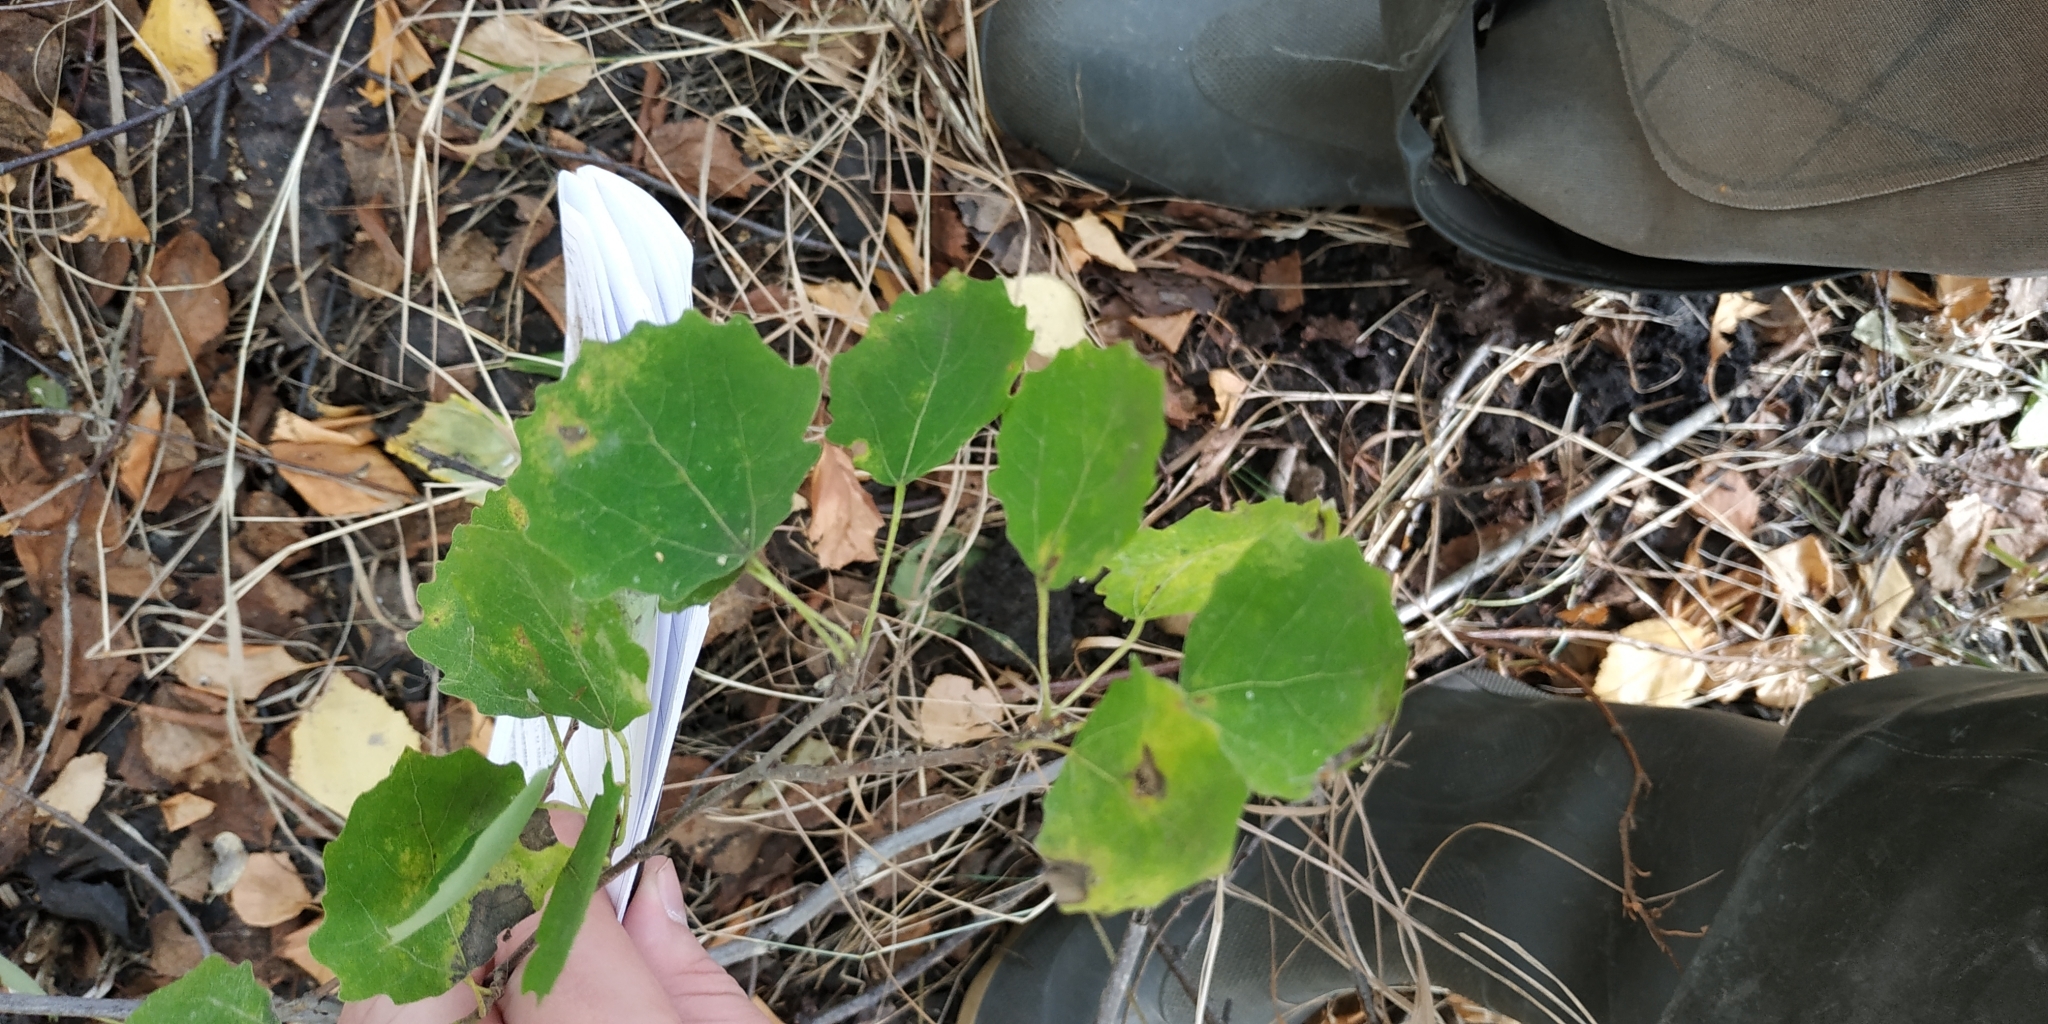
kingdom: Plantae
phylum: Tracheophyta
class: Magnoliopsida
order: Malpighiales
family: Salicaceae
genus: Populus
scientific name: Populus tremula
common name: European aspen
